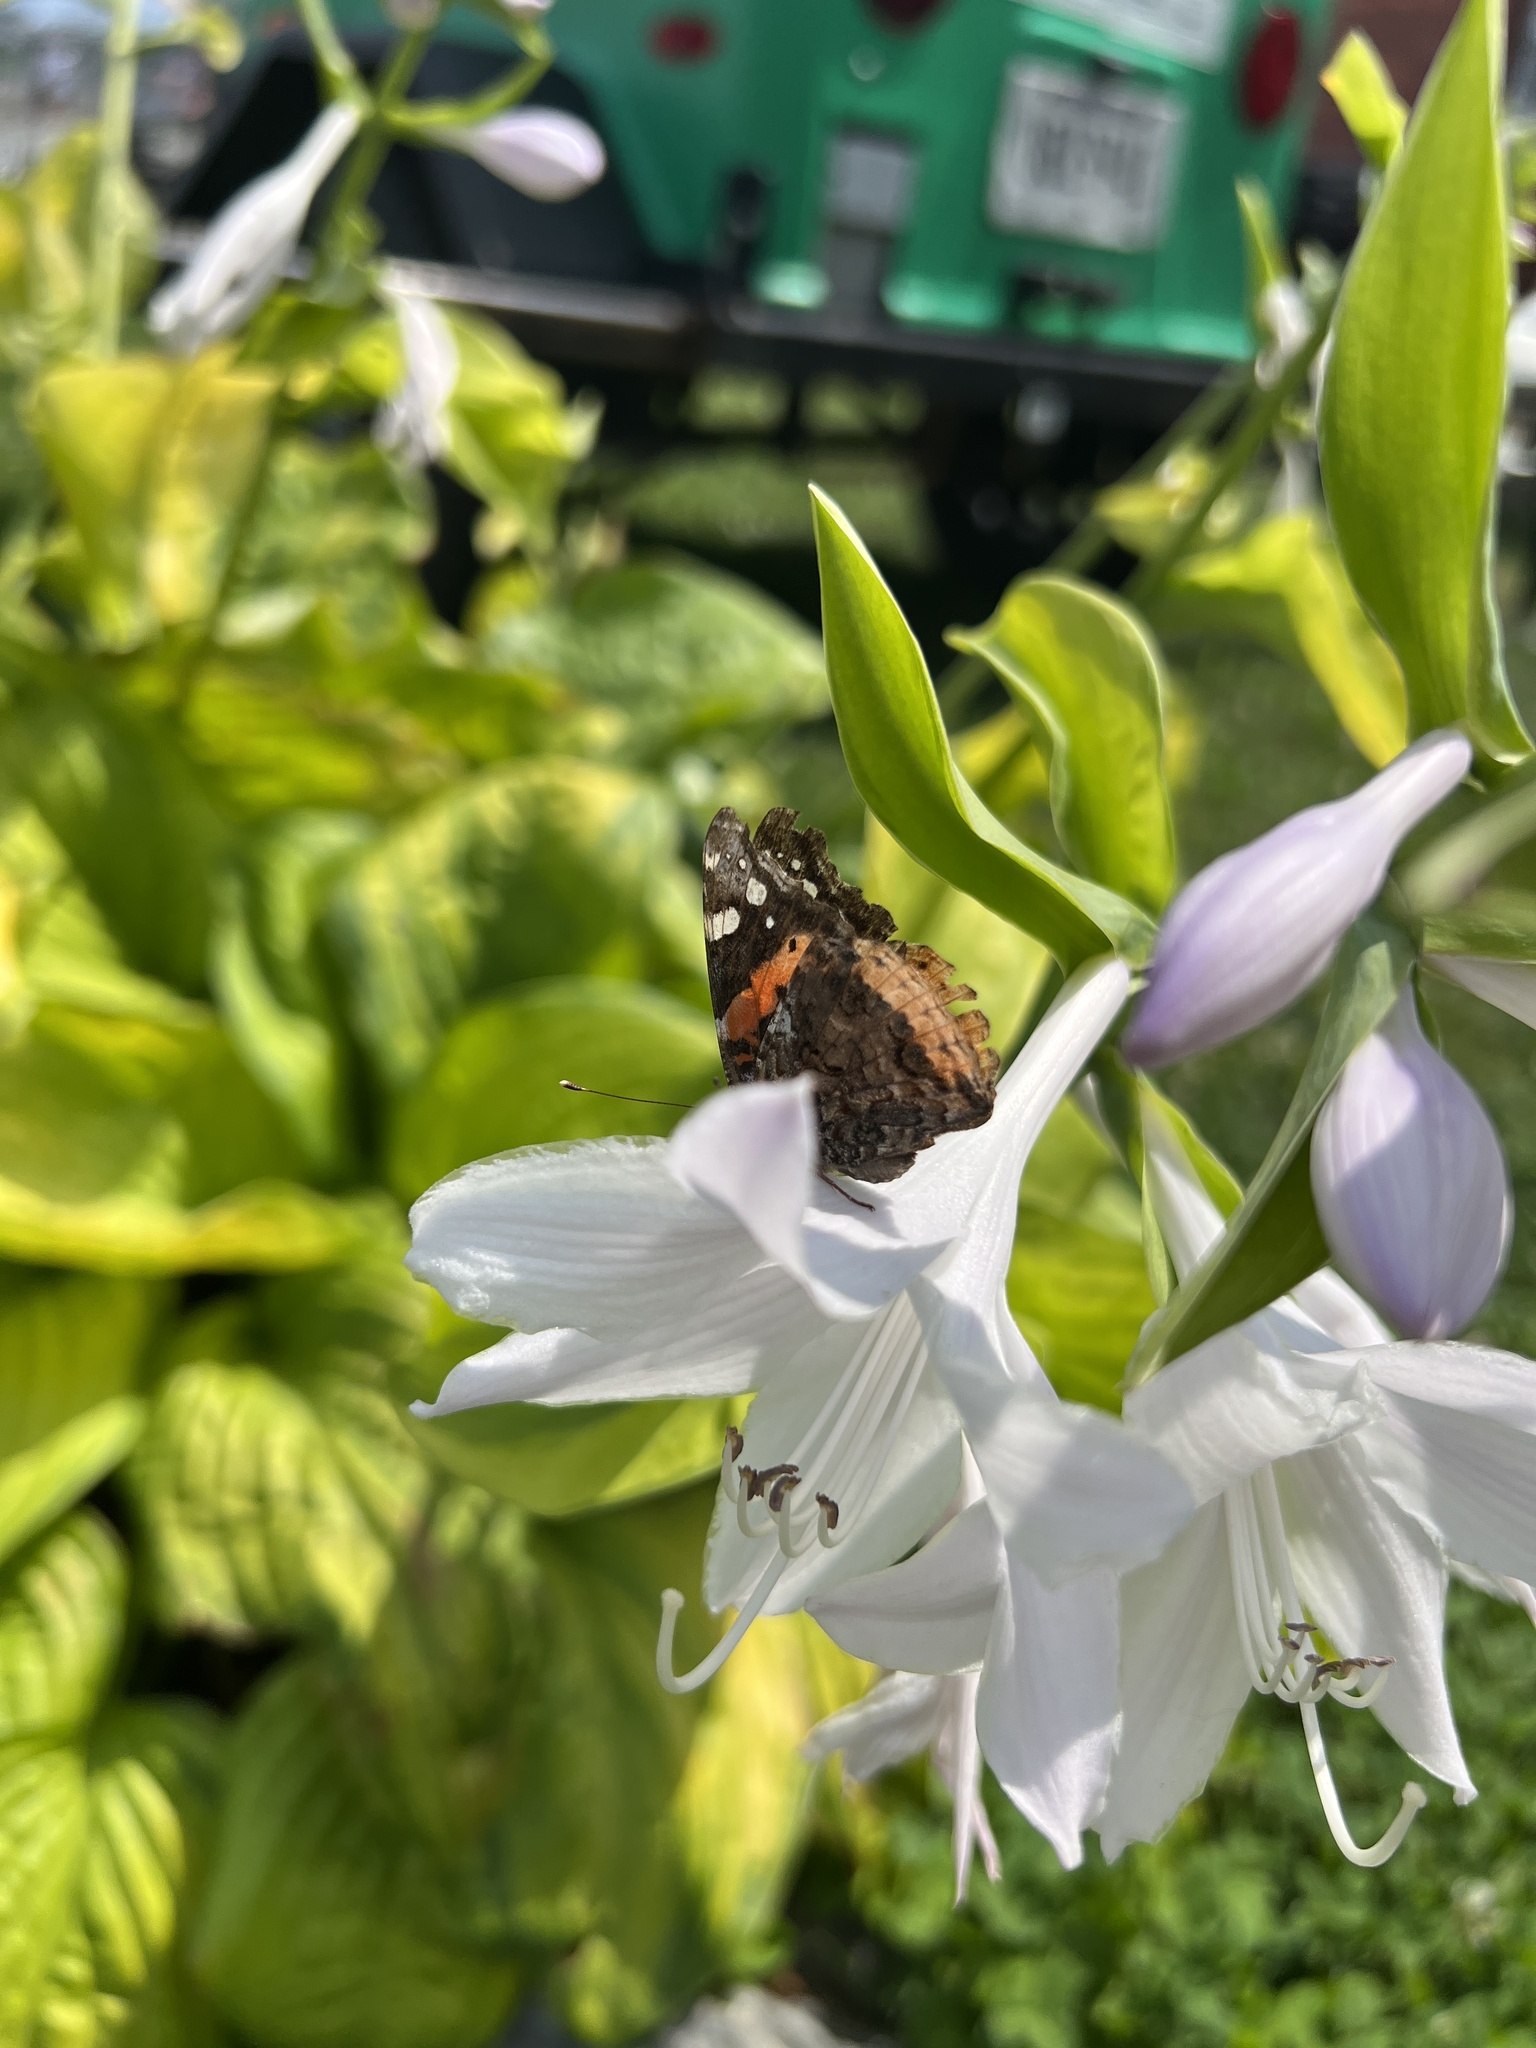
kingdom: Animalia
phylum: Arthropoda
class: Insecta
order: Lepidoptera
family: Nymphalidae
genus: Vanessa
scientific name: Vanessa atalanta
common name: Red admiral
